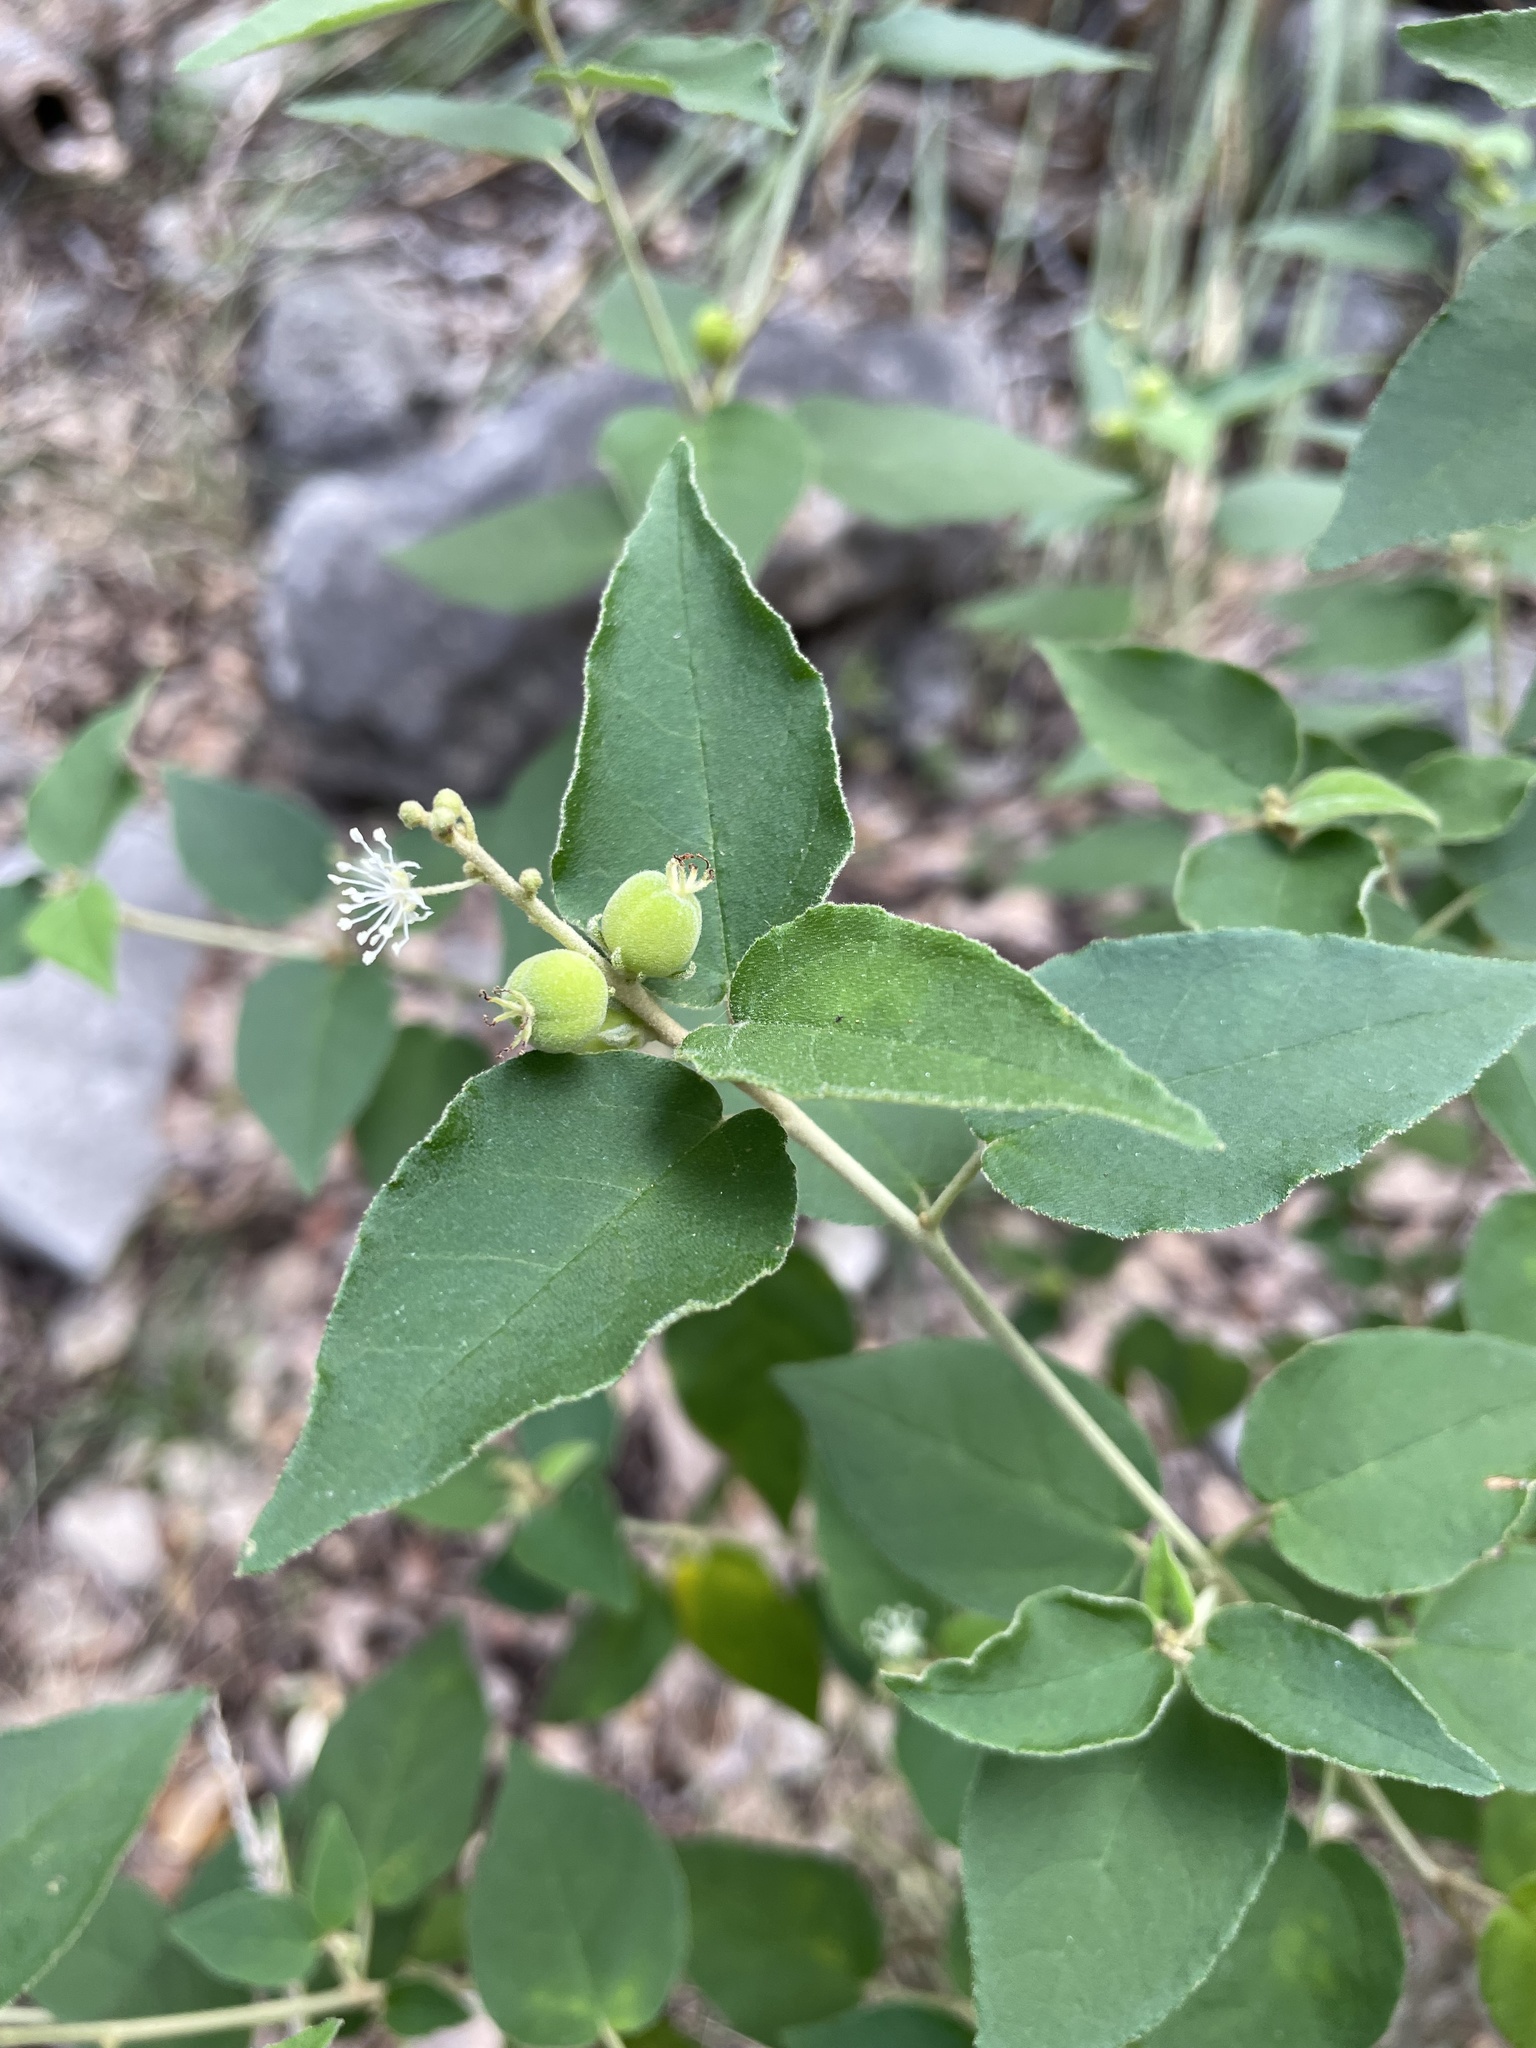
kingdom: Plantae
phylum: Tracheophyta
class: Magnoliopsida
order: Malpighiales
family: Euphorbiaceae
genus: Croton
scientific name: Croton fruticulosus
